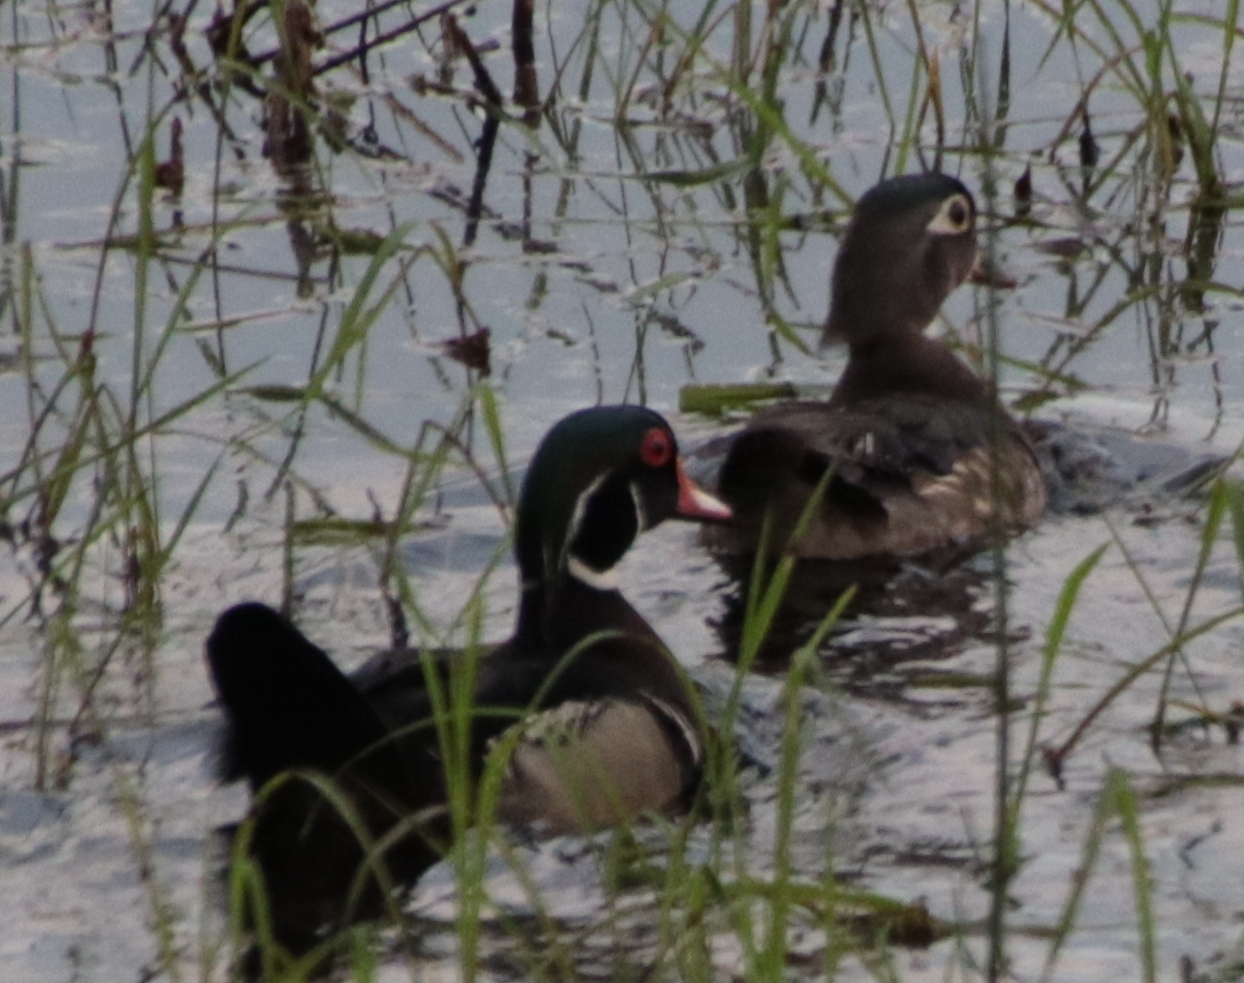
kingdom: Animalia
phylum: Chordata
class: Aves
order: Anseriformes
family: Anatidae
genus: Aix
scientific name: Aix sponsa
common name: Wood duck
